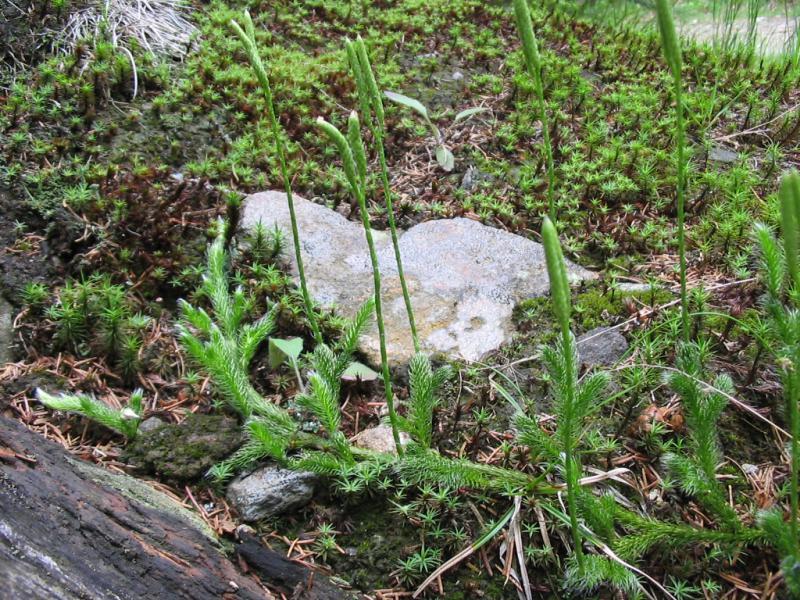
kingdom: Plantae
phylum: Tracheophyta
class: Lycopodiopsida
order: Lycopodiales
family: Lycopodiaceae
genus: Lycopodium
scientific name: Lycopodium clavatum
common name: Stag's-horn clubmoss
